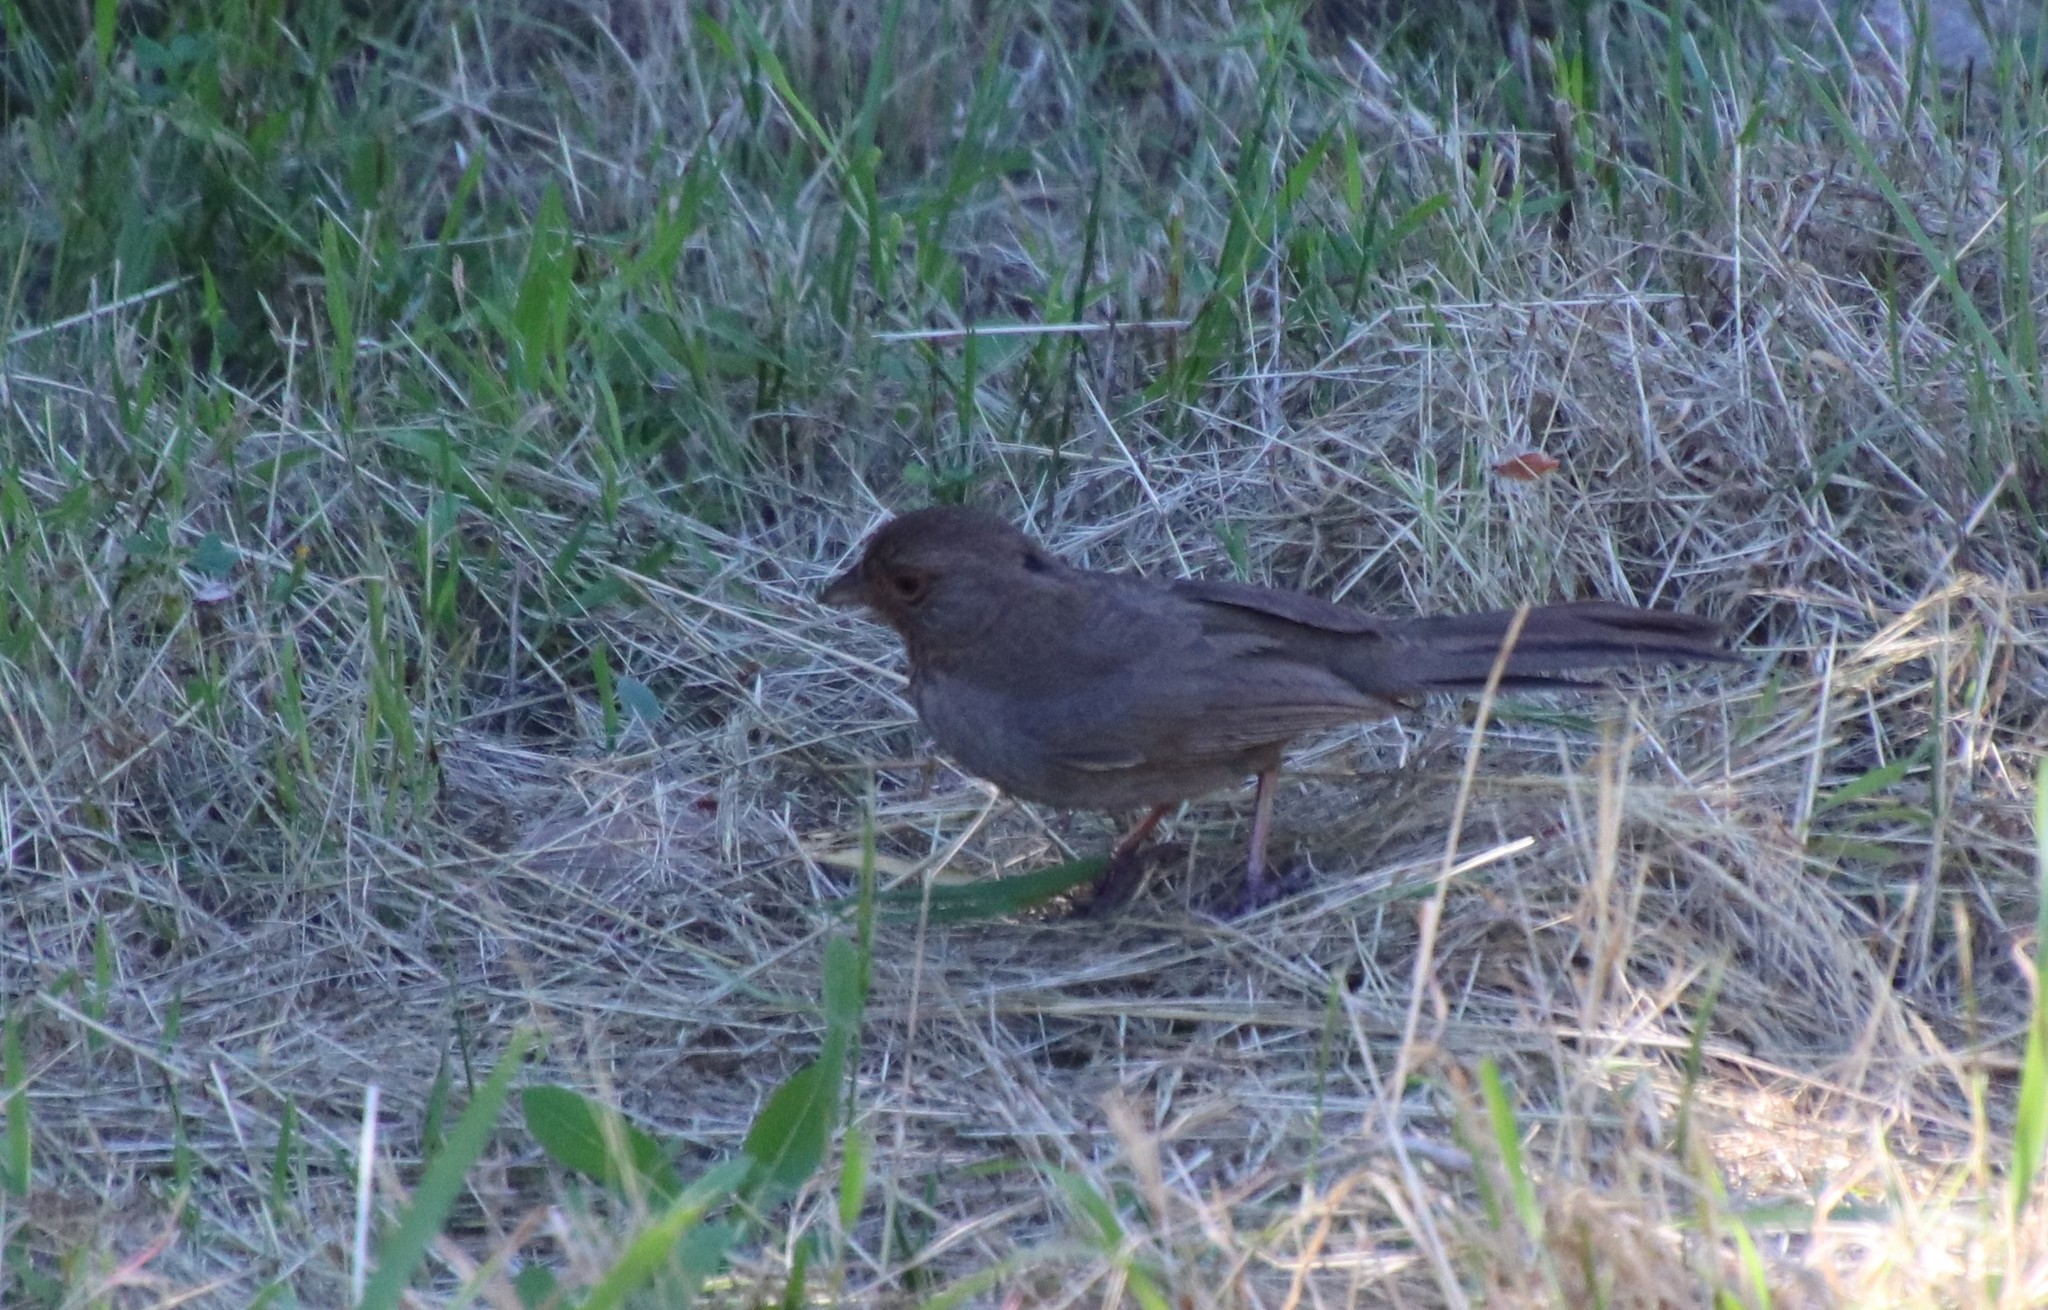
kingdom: Animalia
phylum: Chordata
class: Aves
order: Passeriformes
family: Passerellidae
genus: Melozone
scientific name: Melozone crissalis
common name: California towhee
